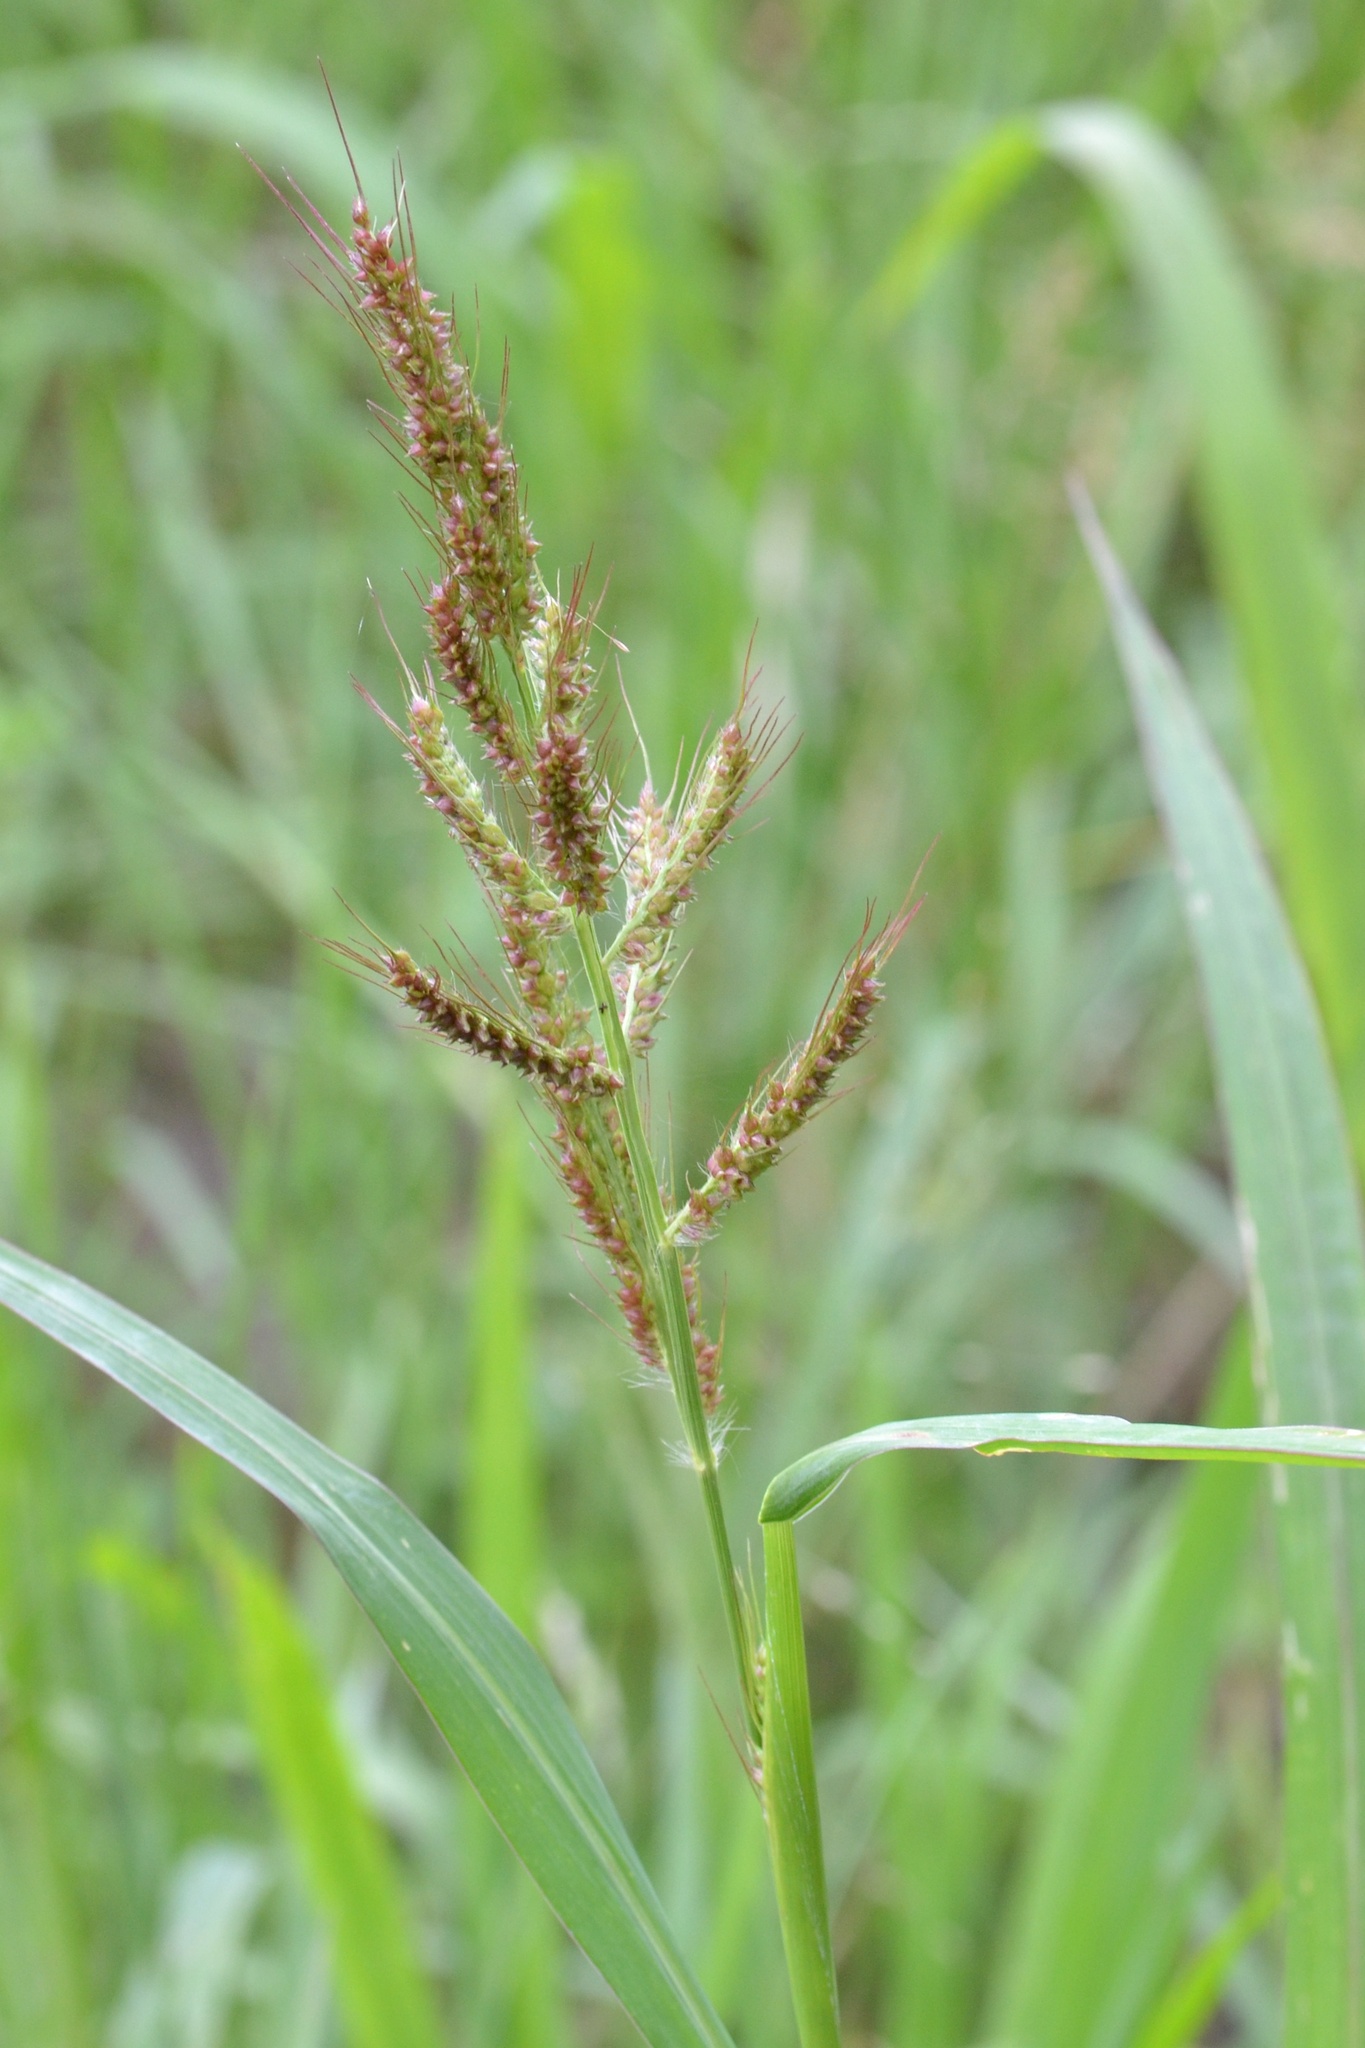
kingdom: Plantae
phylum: Tracheophyta
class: Liliopsida
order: Poales
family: Poaceae
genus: Echinochloa
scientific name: Echinochloa crus-galli
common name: Cockspur
